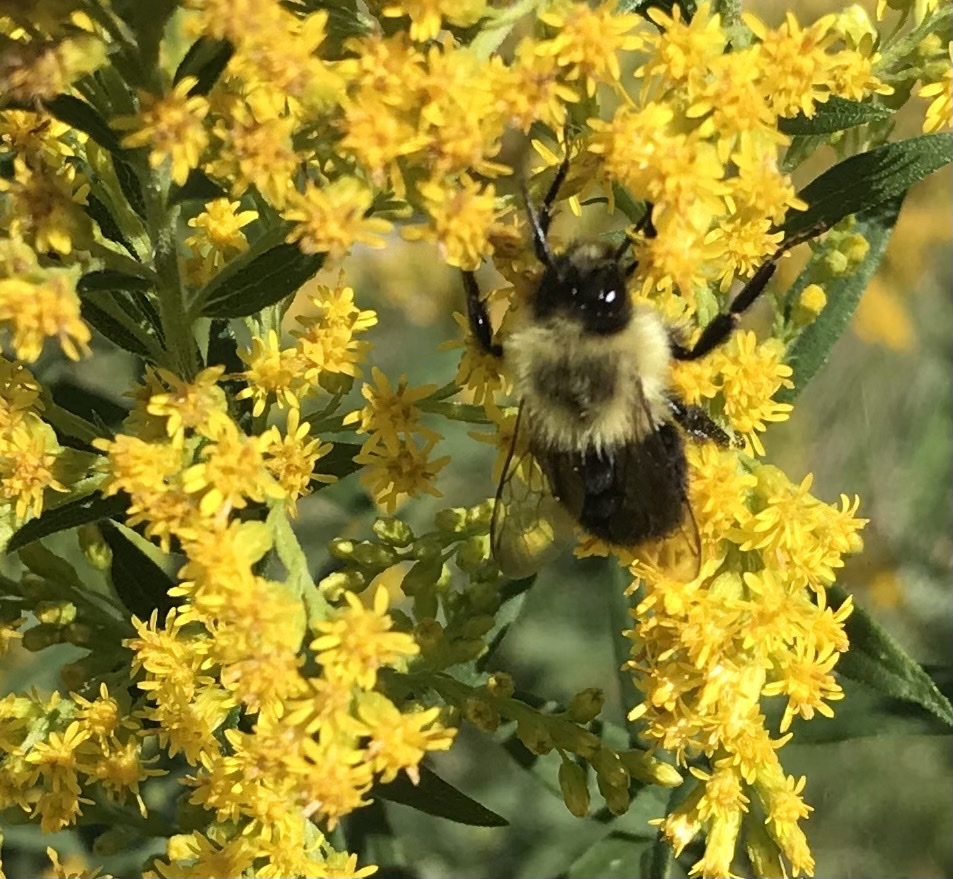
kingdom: Animalia
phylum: Arthropoda
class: Insecta
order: Hymenoptera
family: Apidae
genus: Bombus
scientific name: Bombus impatiens
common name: Common eastern bumble bee
